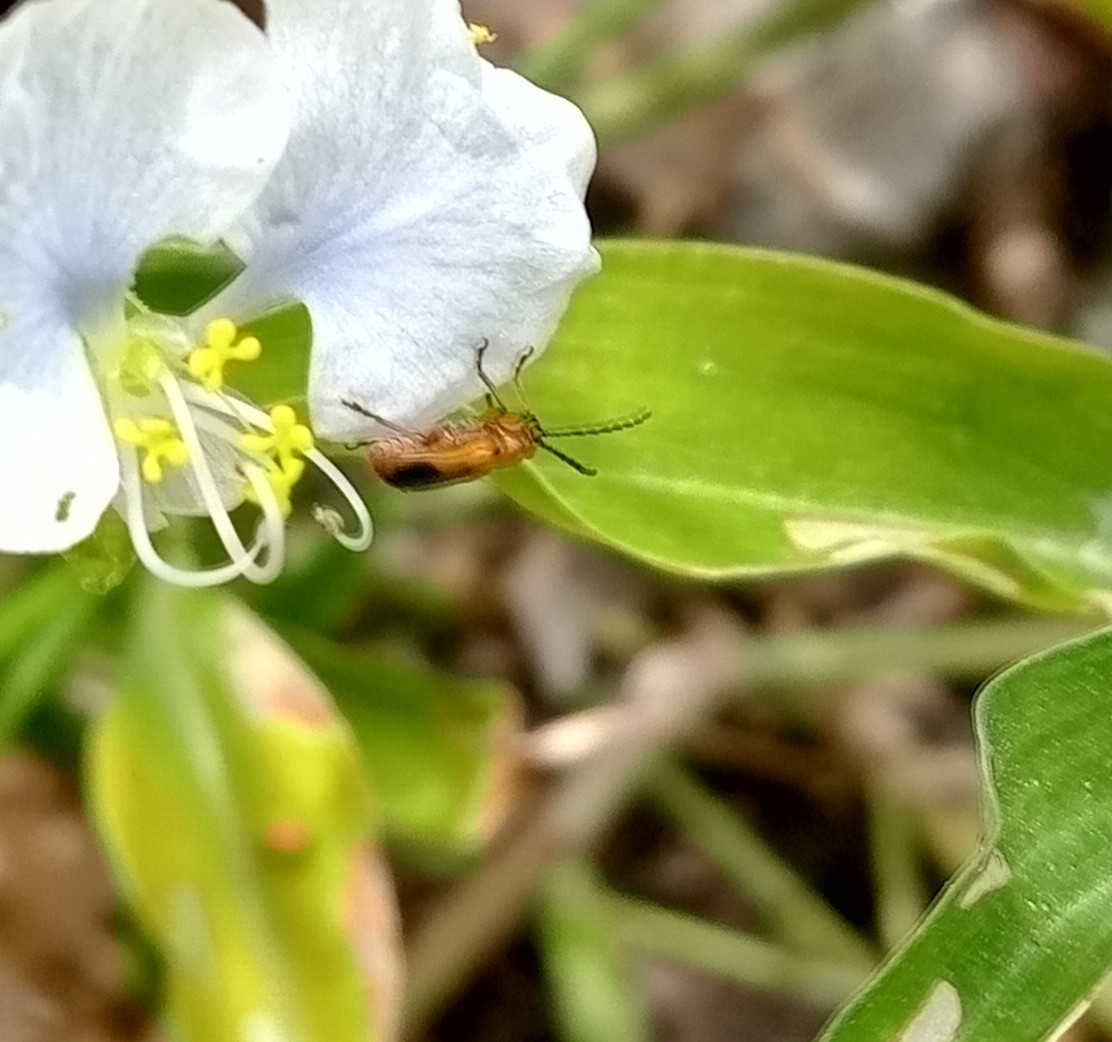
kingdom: Animalia
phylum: Arthropoda
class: Insecta
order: Coleoptera
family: Chrysomelidae
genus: Neolema
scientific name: Neolema dorsalis
